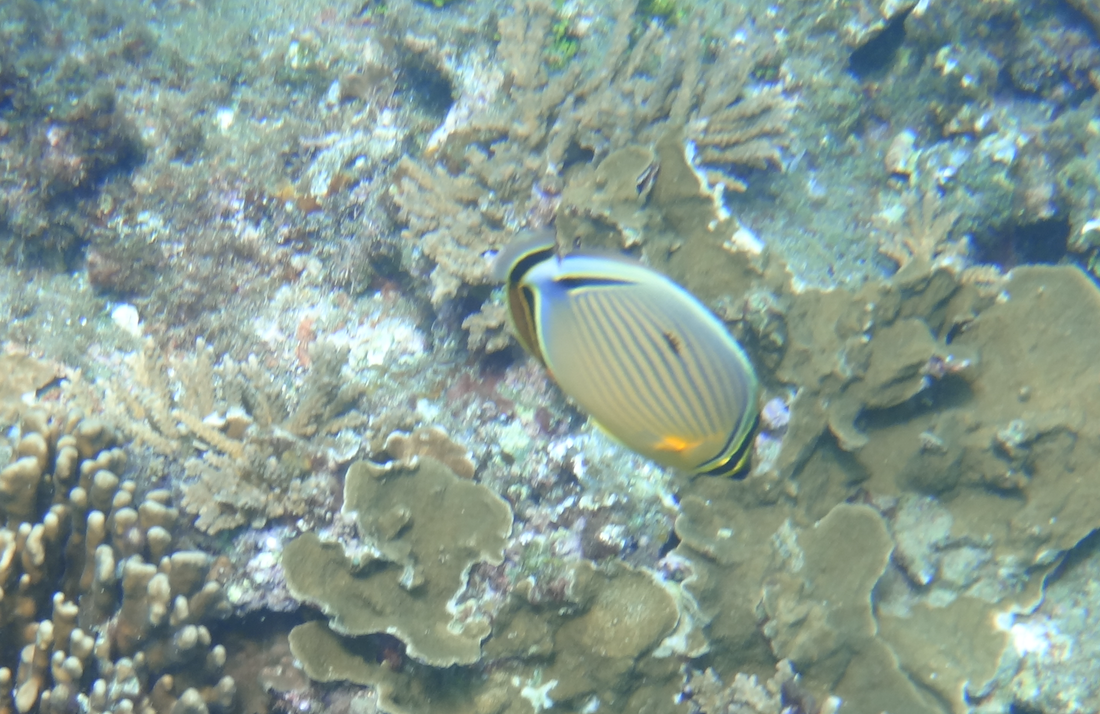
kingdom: Animalia
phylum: Chordata
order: Perciformes
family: Chaetodontidae
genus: Chaetodon
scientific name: Chaetodon lunulatus
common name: Redfin butterflyfish
